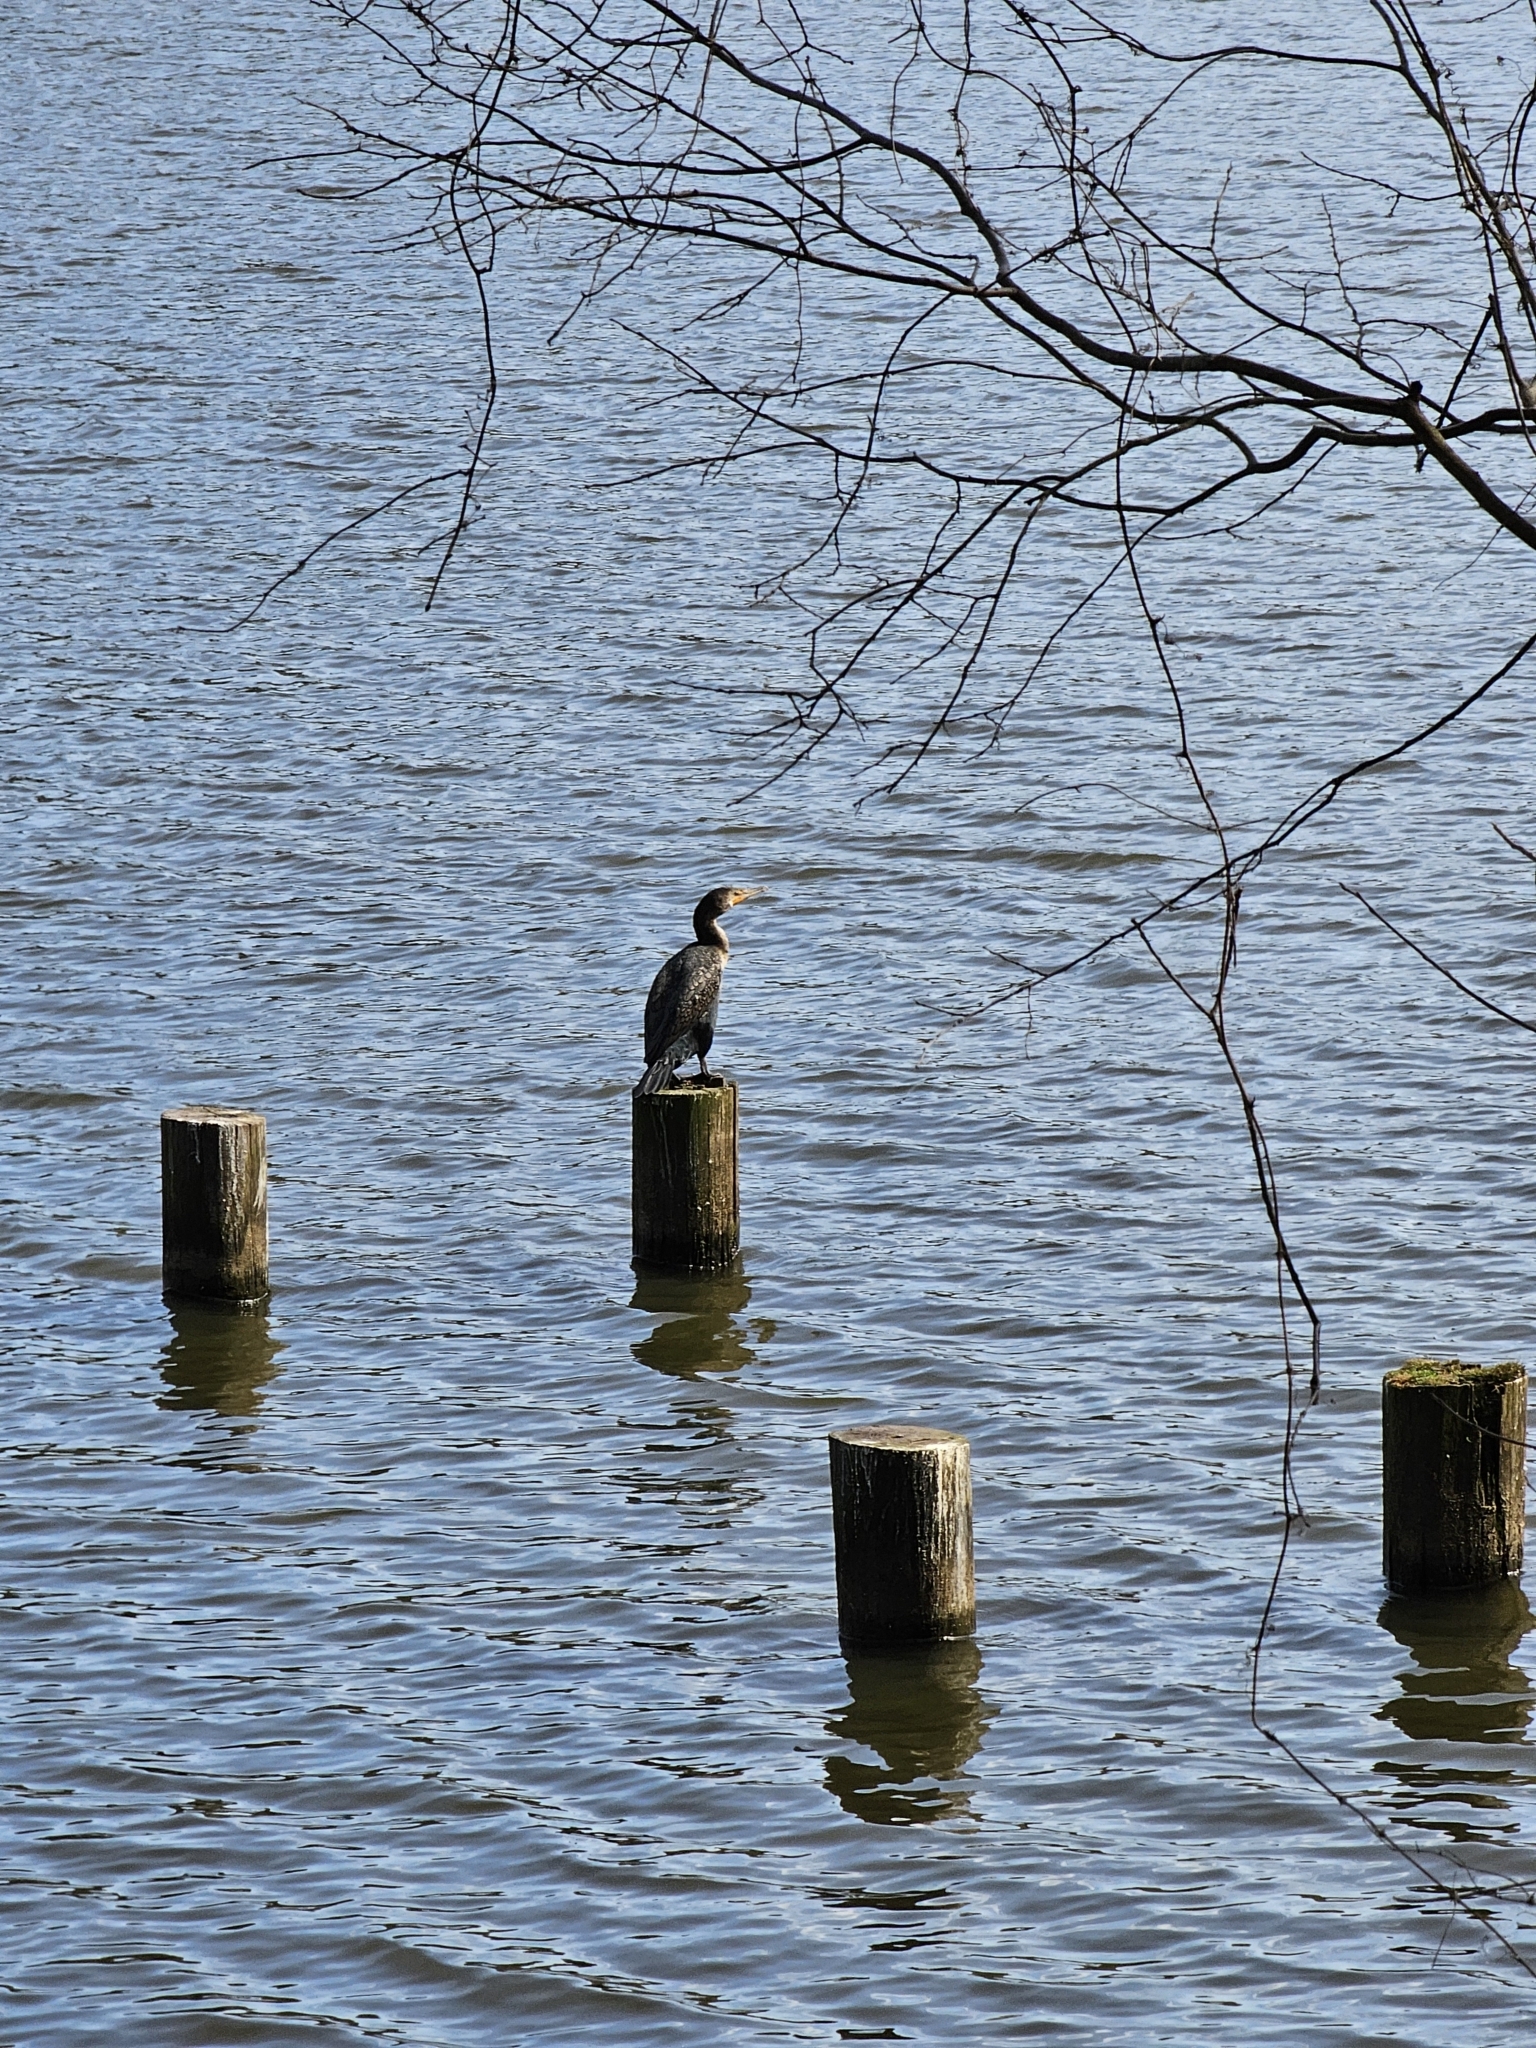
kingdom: Animalia
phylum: Chordata
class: Aves
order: Suliformes
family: Phalacrocoracidae
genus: Phalacrocorax
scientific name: Phalacrocorax auritus
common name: Double-crested cormorant
